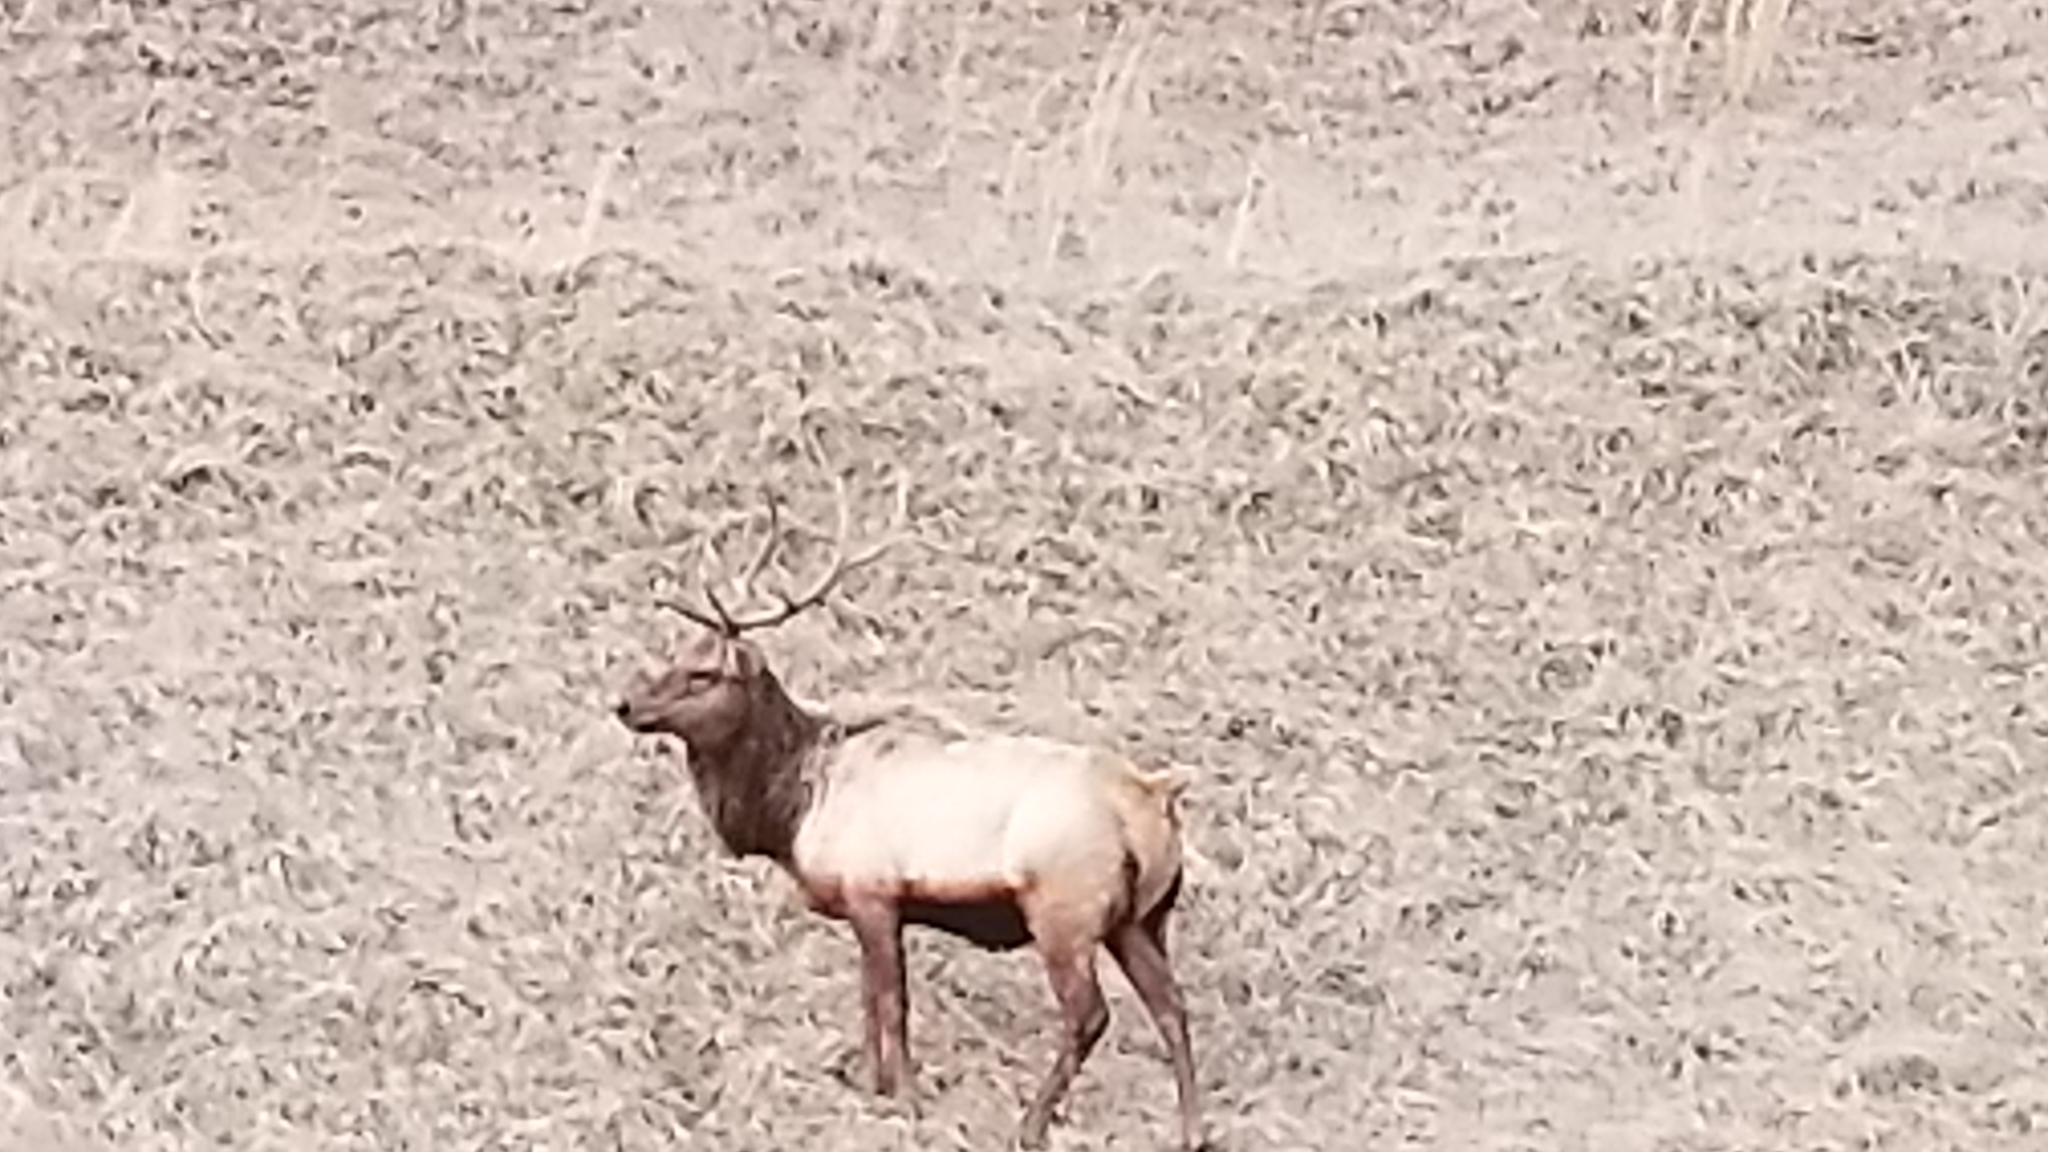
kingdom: Animalia
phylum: Chordata
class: Mammalia
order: Artiodactyla
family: Cervidae
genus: Cervus
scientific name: Cervus elaphus
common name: Red deer
